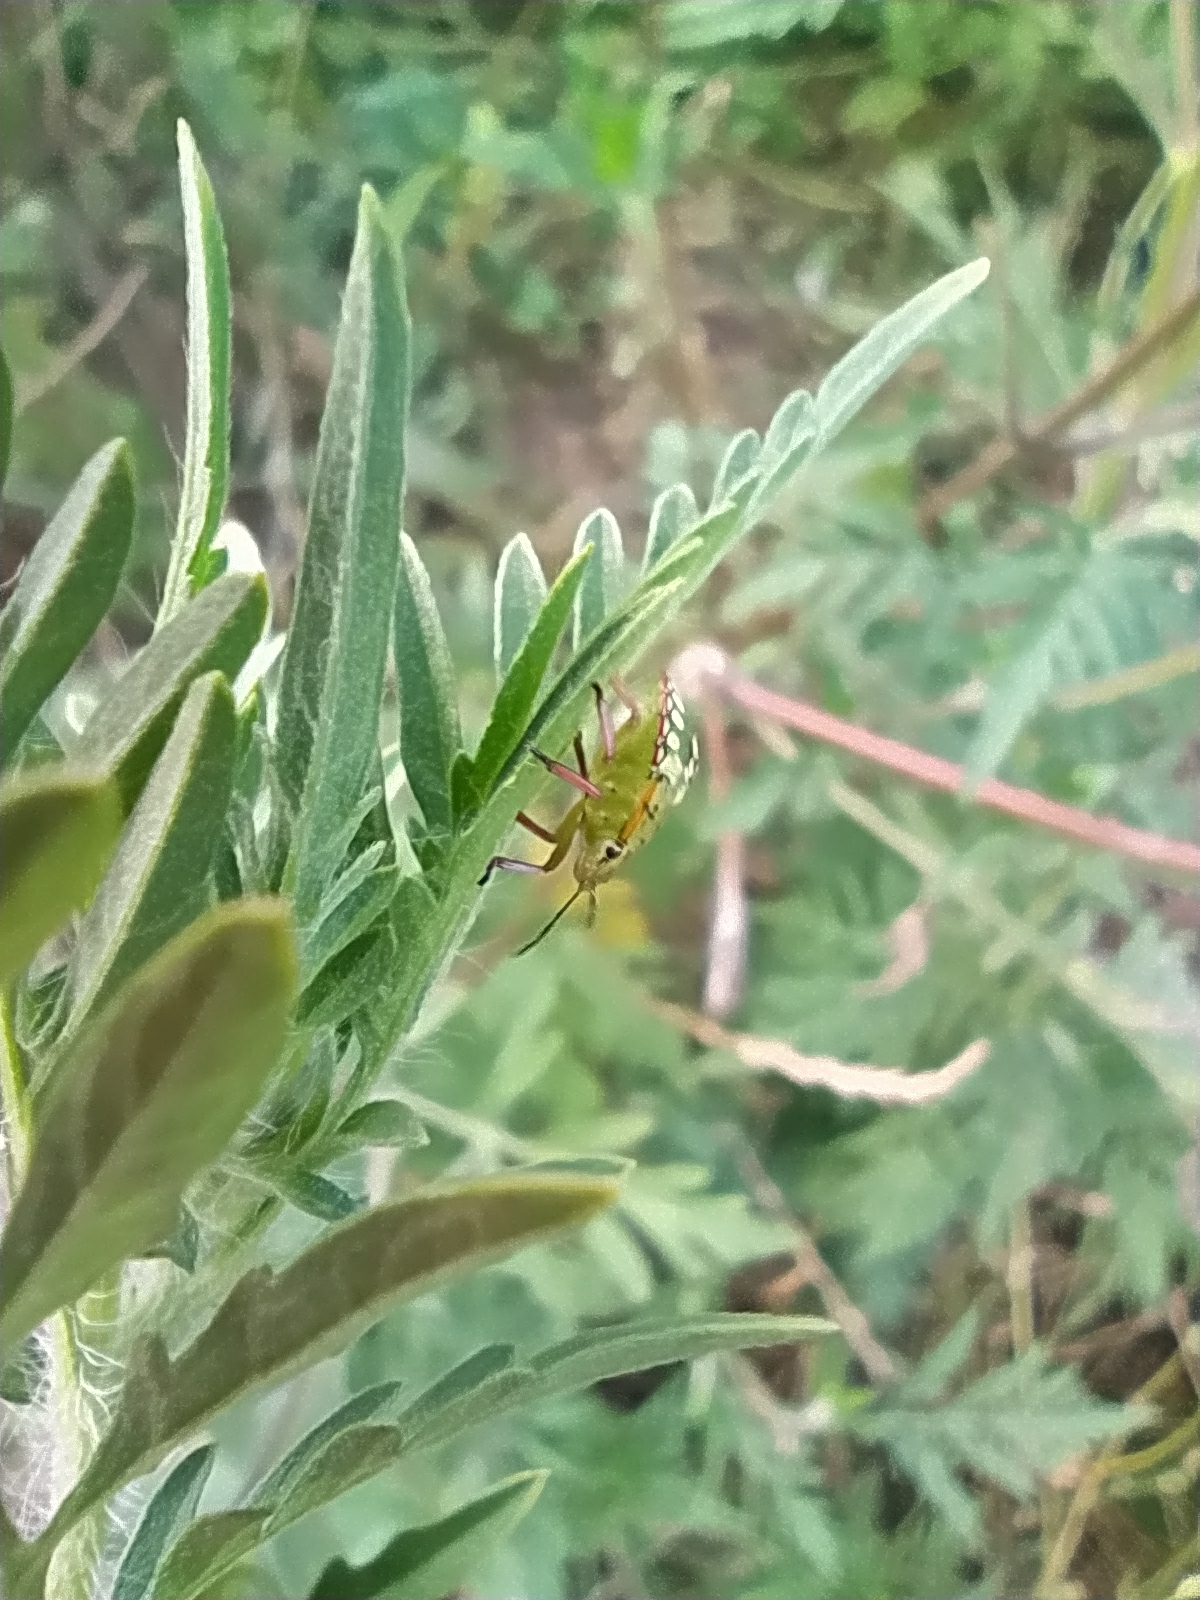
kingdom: Animalia
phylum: Arthropoda
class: Insecta
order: Hemiptera
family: Pentatomidae
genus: Nezara
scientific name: Nezara viridula
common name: Southern green stink bug
